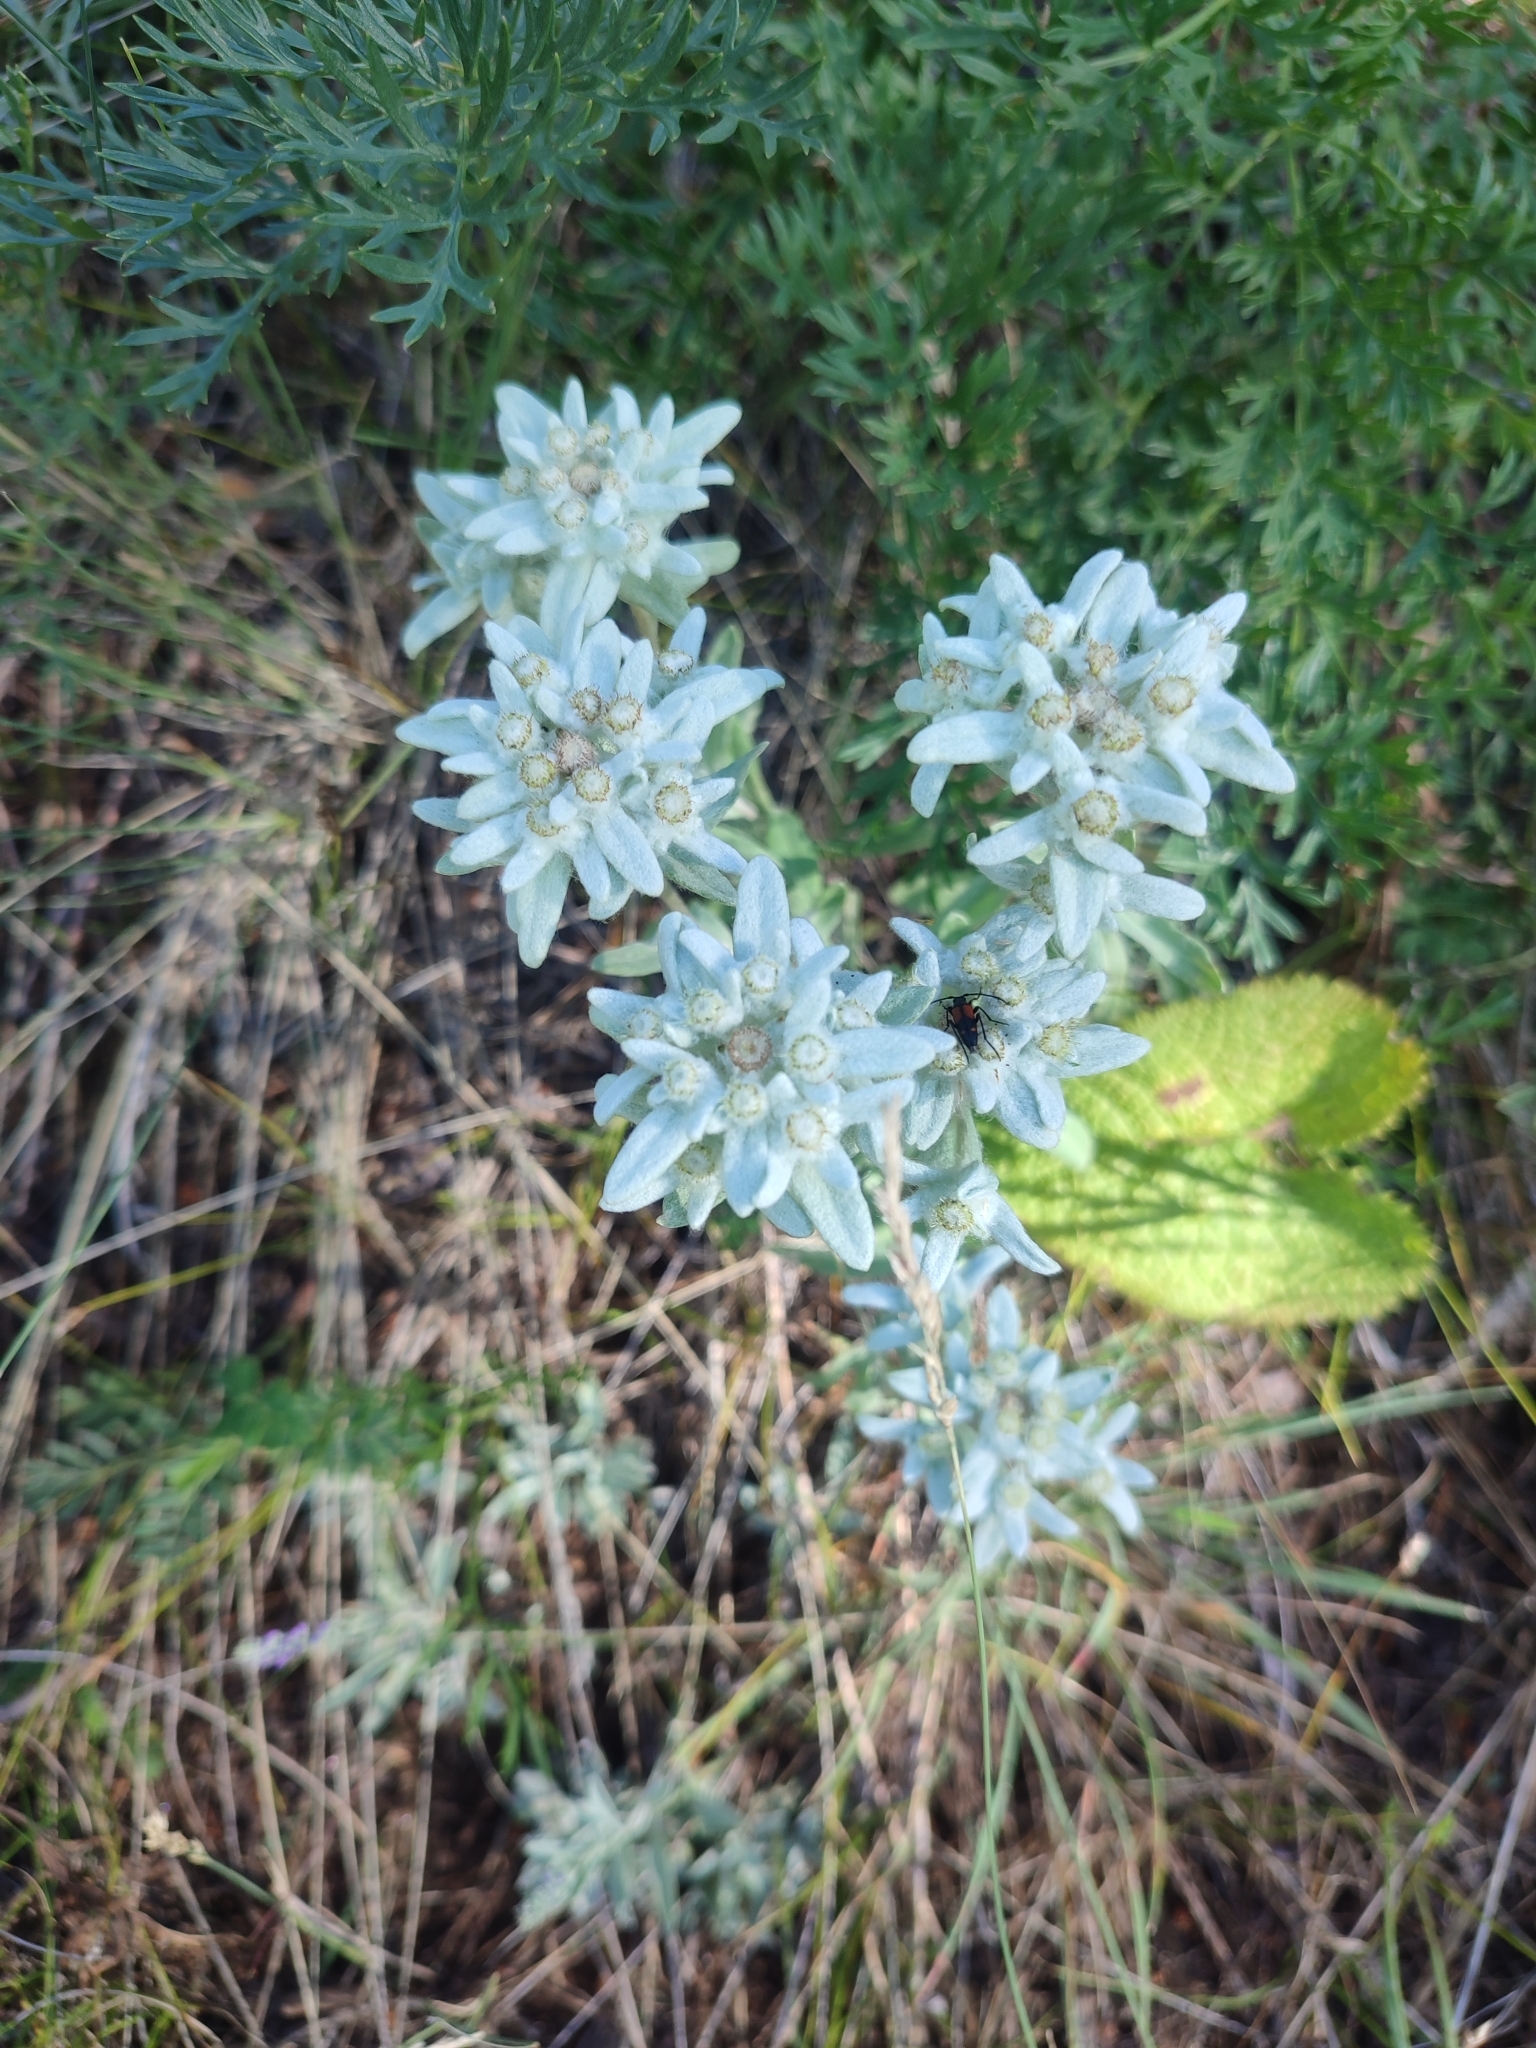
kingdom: Plantae
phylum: Tracheophyta
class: Magnoliopsida
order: Asterales
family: Asteraceae
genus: Leontopodium
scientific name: Leontopodium conglobatum
